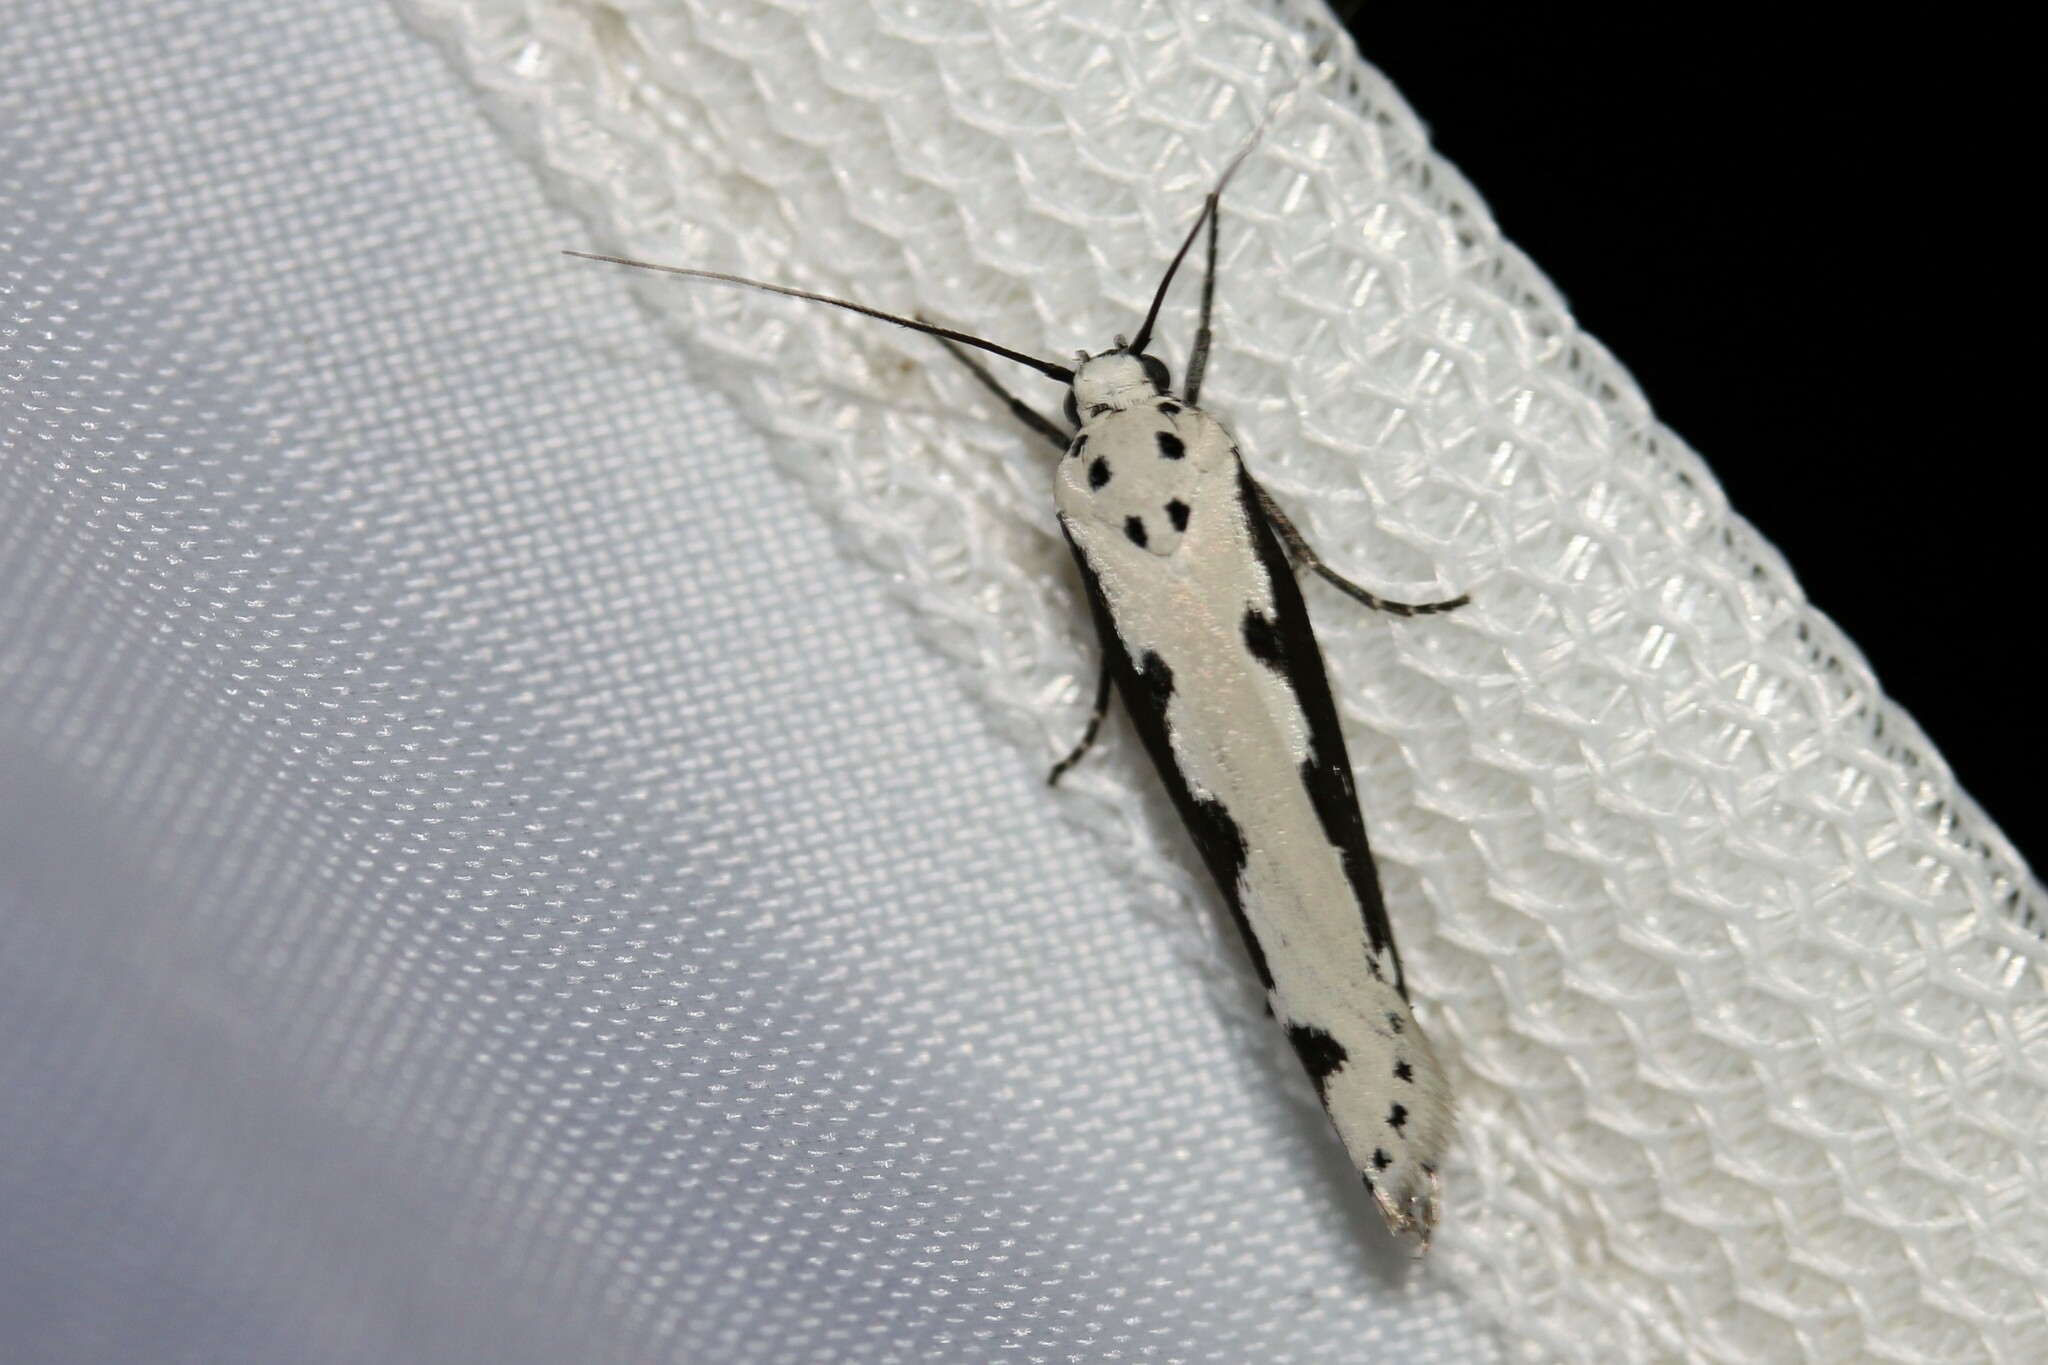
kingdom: Animalia
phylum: Arthropoda
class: Insecta
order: Lepidoptera
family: Ethmiidae
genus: Ethmia
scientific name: Ethmia bipunctella
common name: Bordered ermel
